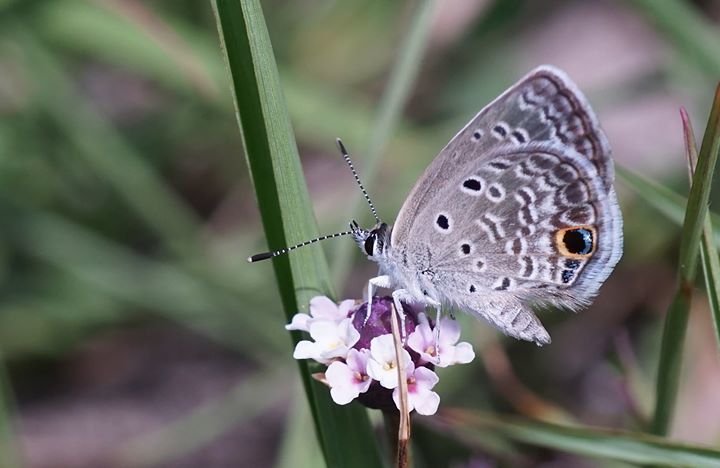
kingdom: Animalia
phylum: Arthropoda
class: Insecta
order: Lepidoptera
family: Lycaenidae
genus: Hemiargus
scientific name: Hemiargus ceraunus
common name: Ceraunus blue
